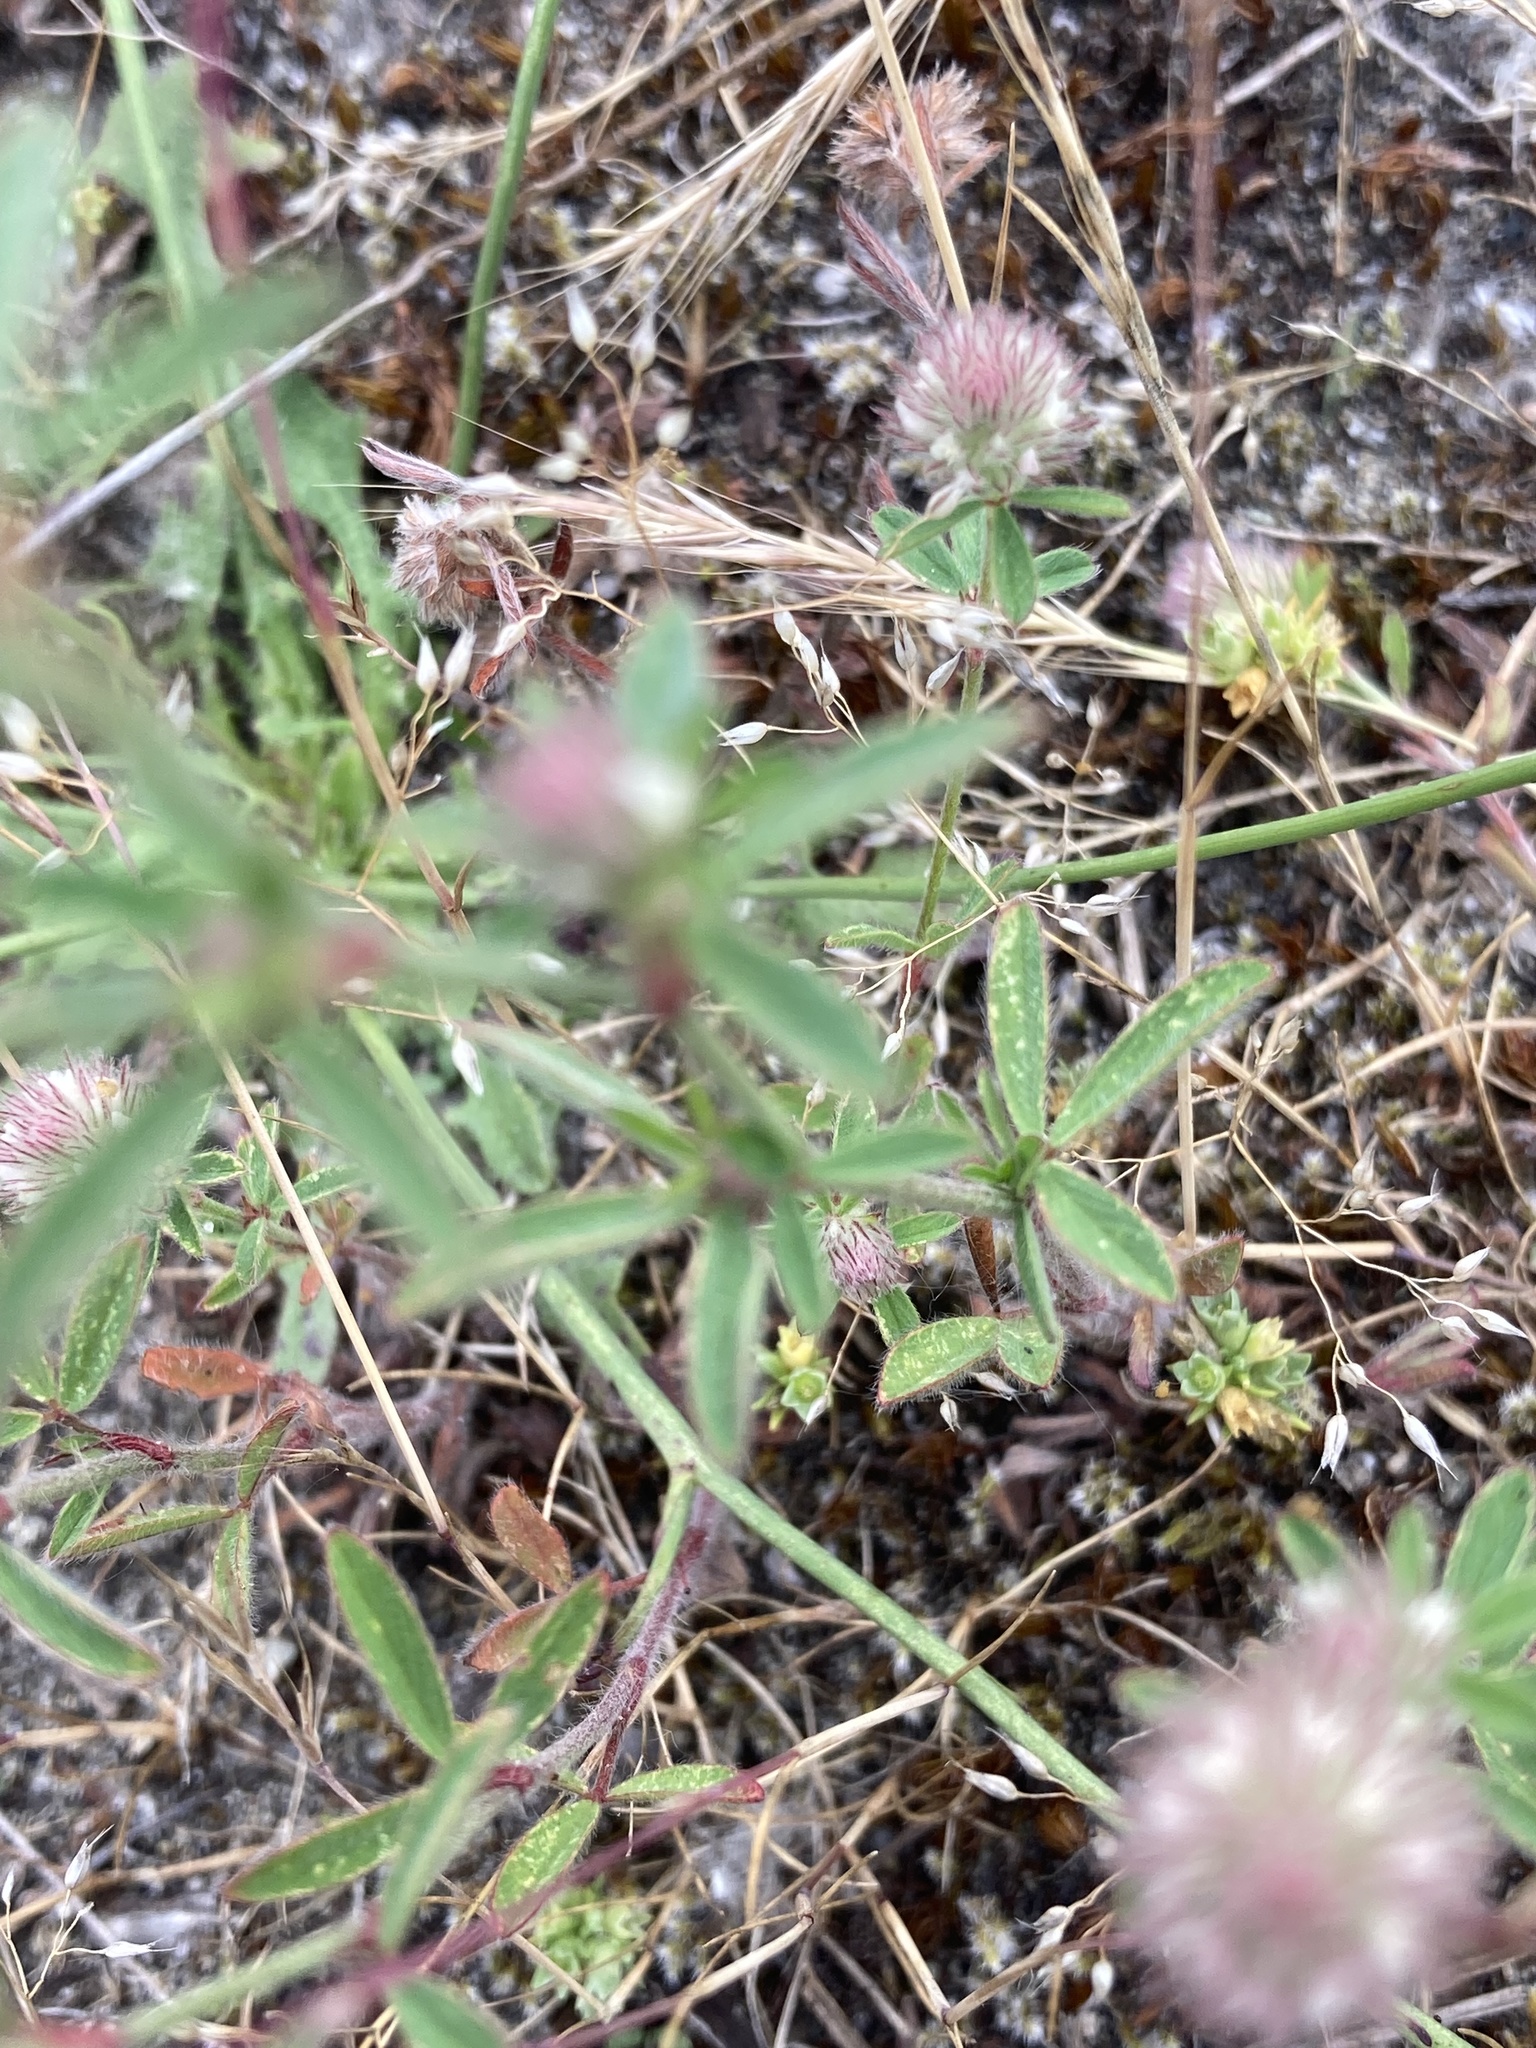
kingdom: Plantae
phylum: Tracheophyta
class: Magnoliopsida
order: Fabales
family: Fabaceae
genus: Trifolium
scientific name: Trifolium arvense
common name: Hare's-foot clover
